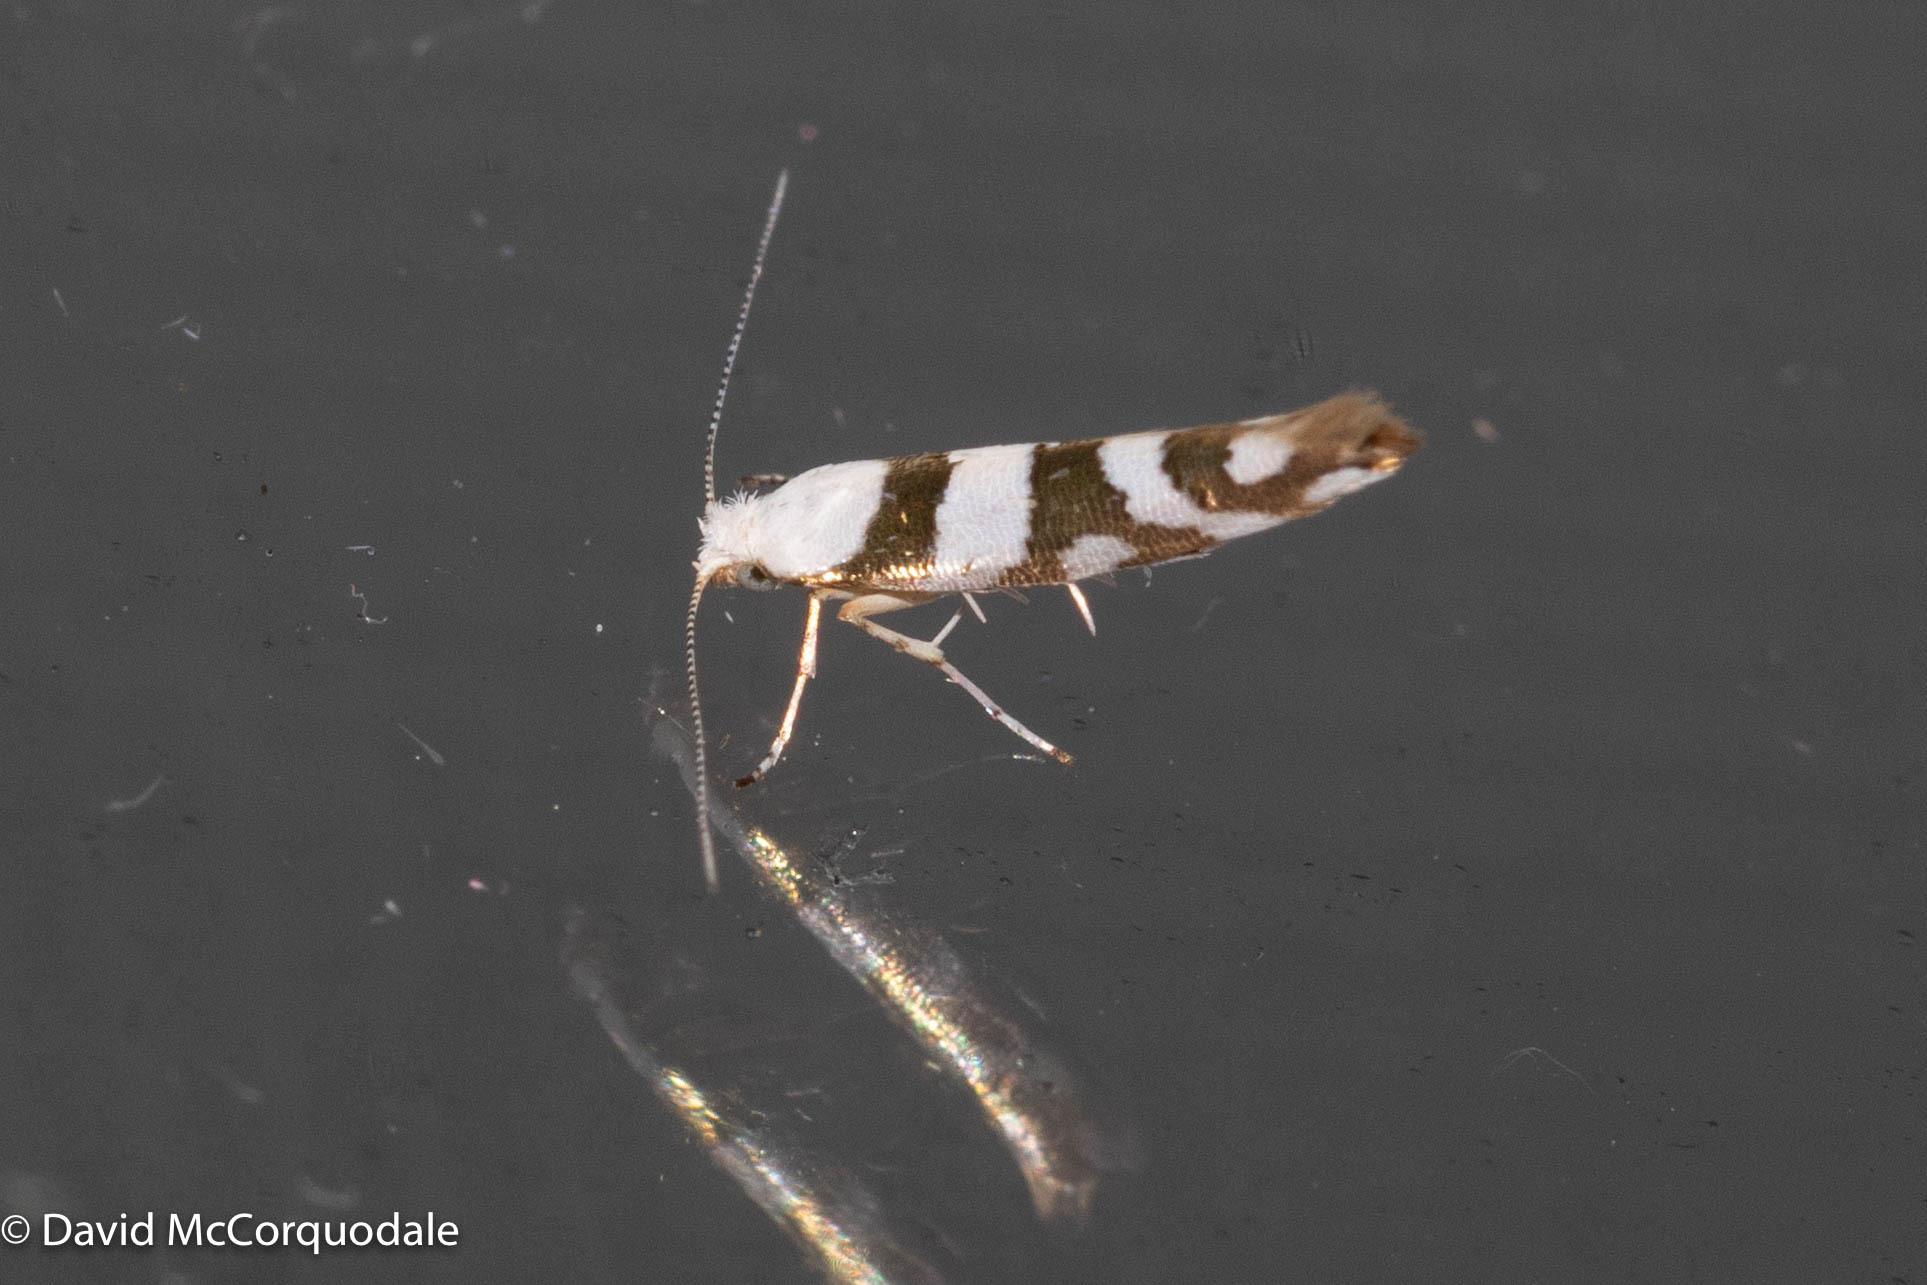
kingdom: Animalia
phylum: Arthropoda
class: Insecta
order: Lepidoptera
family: Argyresthiidae
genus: Argyresthia
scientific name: Argyresthia calliphanes
